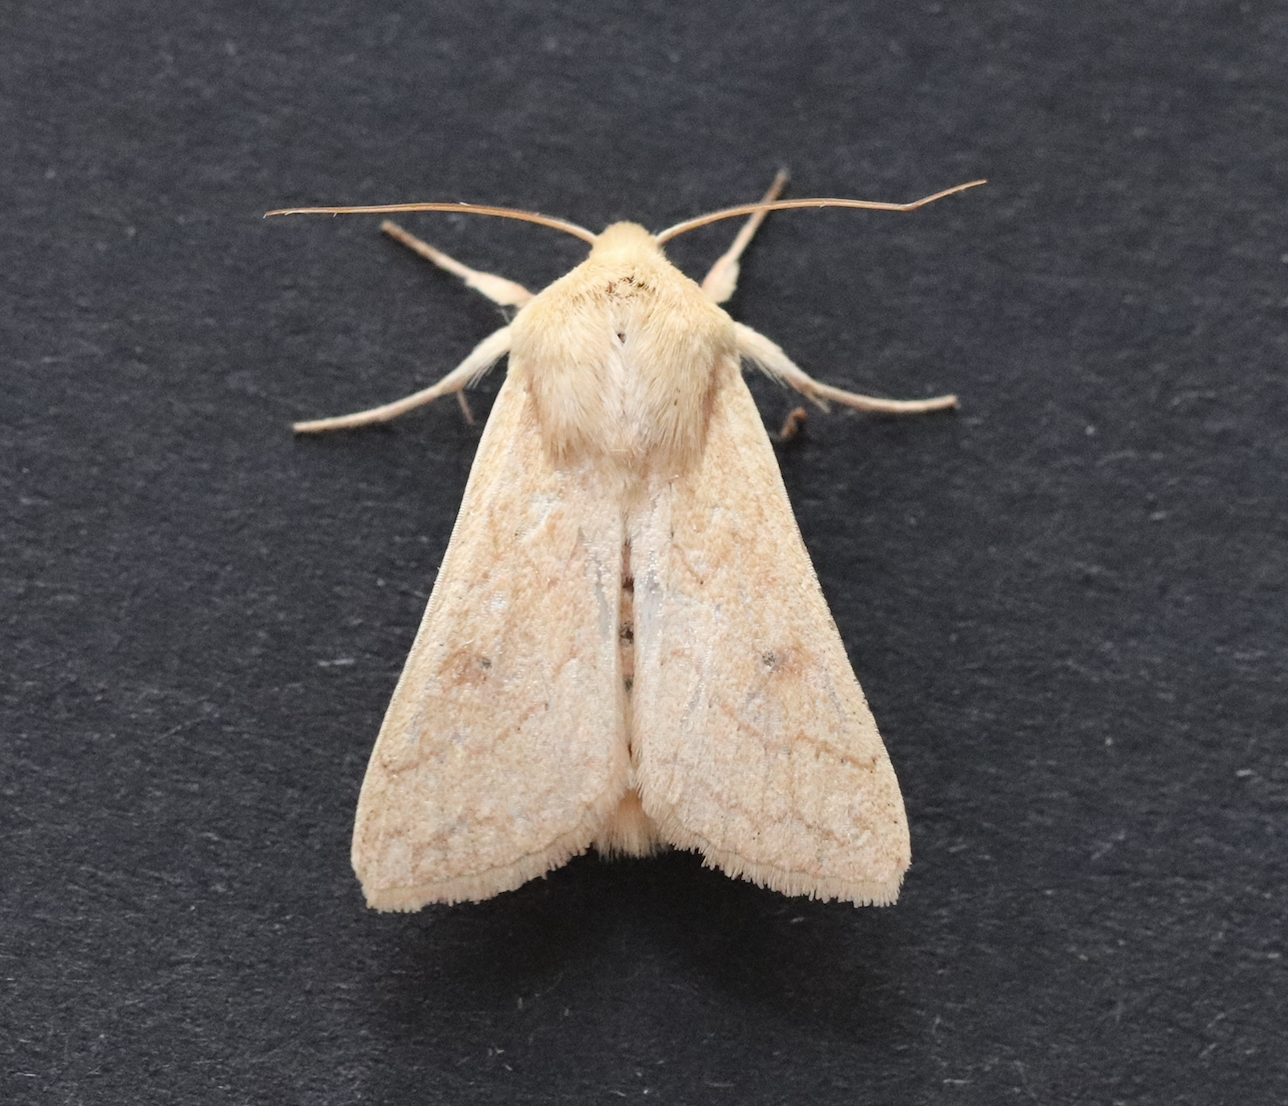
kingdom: Animalia
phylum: Arthropoda
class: Insecta
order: Lepidoptera
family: Noctuidae
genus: Mythimna
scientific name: Mythimna vitellina
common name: Delicate
